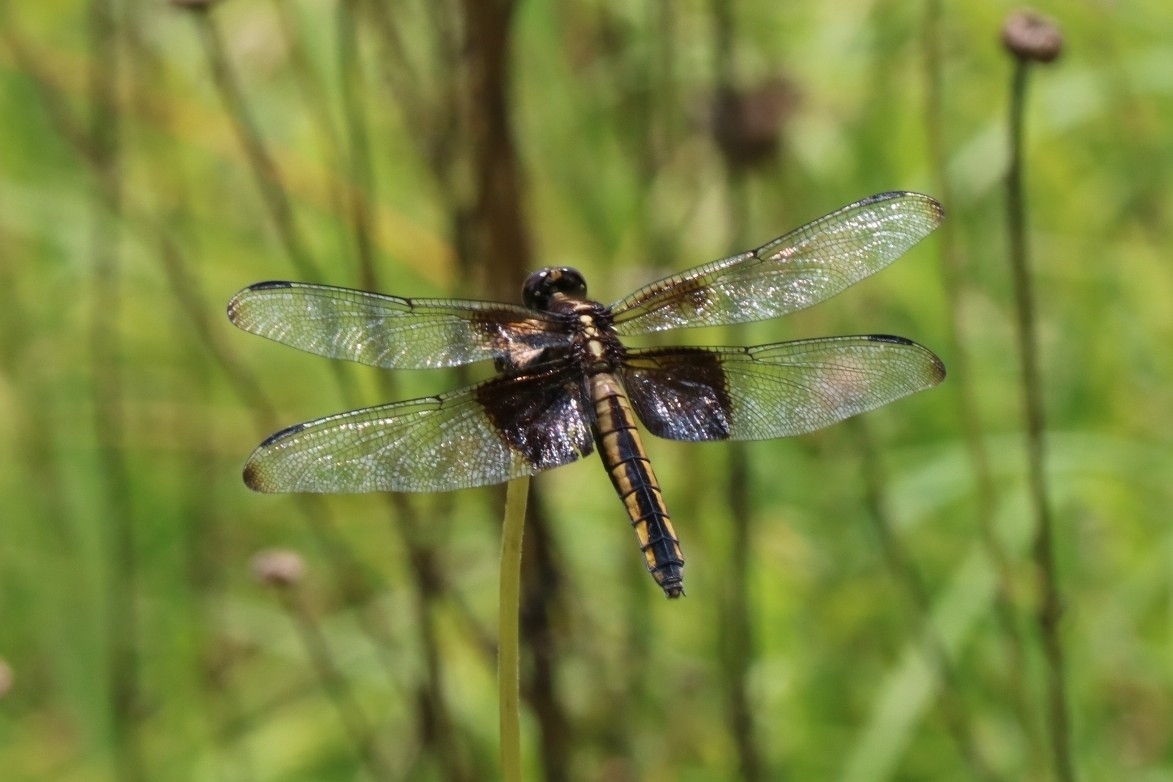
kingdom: Animalia
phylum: Arthropoda
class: Insecta
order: Odonata
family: Libellulidae
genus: Libellula
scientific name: Libellula luctuosa
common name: Widow skimmer
